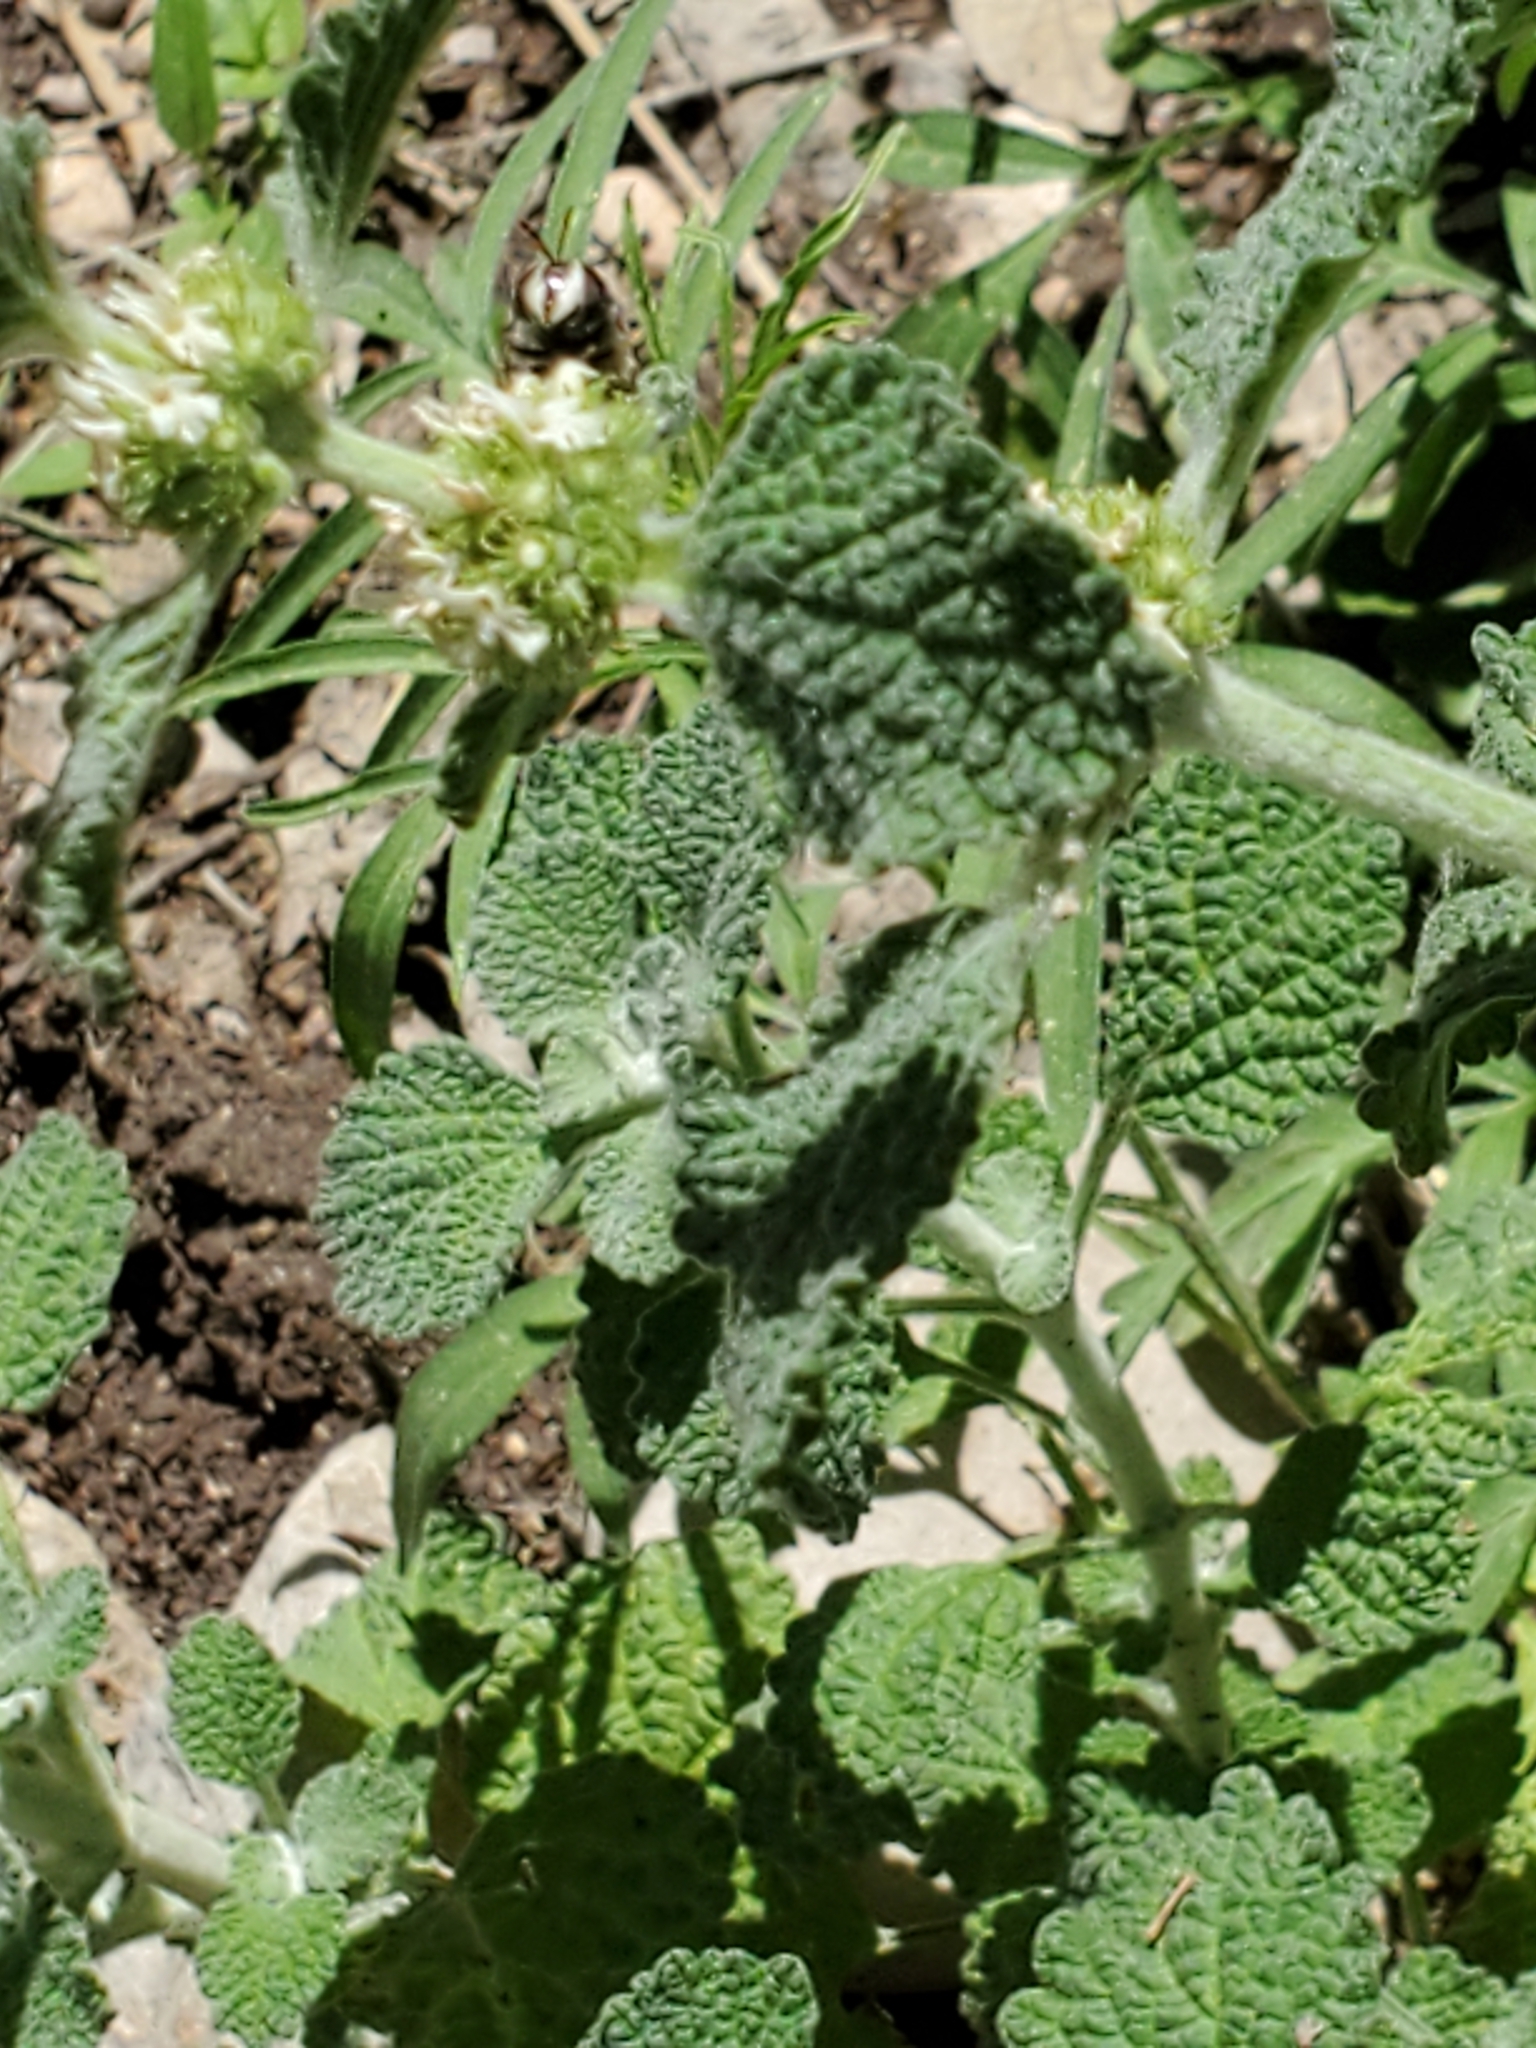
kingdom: Plantae
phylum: Tracheophyta
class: Magnoliopsida
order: Lamiales
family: Lamiaceae
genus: Marrubium
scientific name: Marrubium vulgare
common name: Horehound
